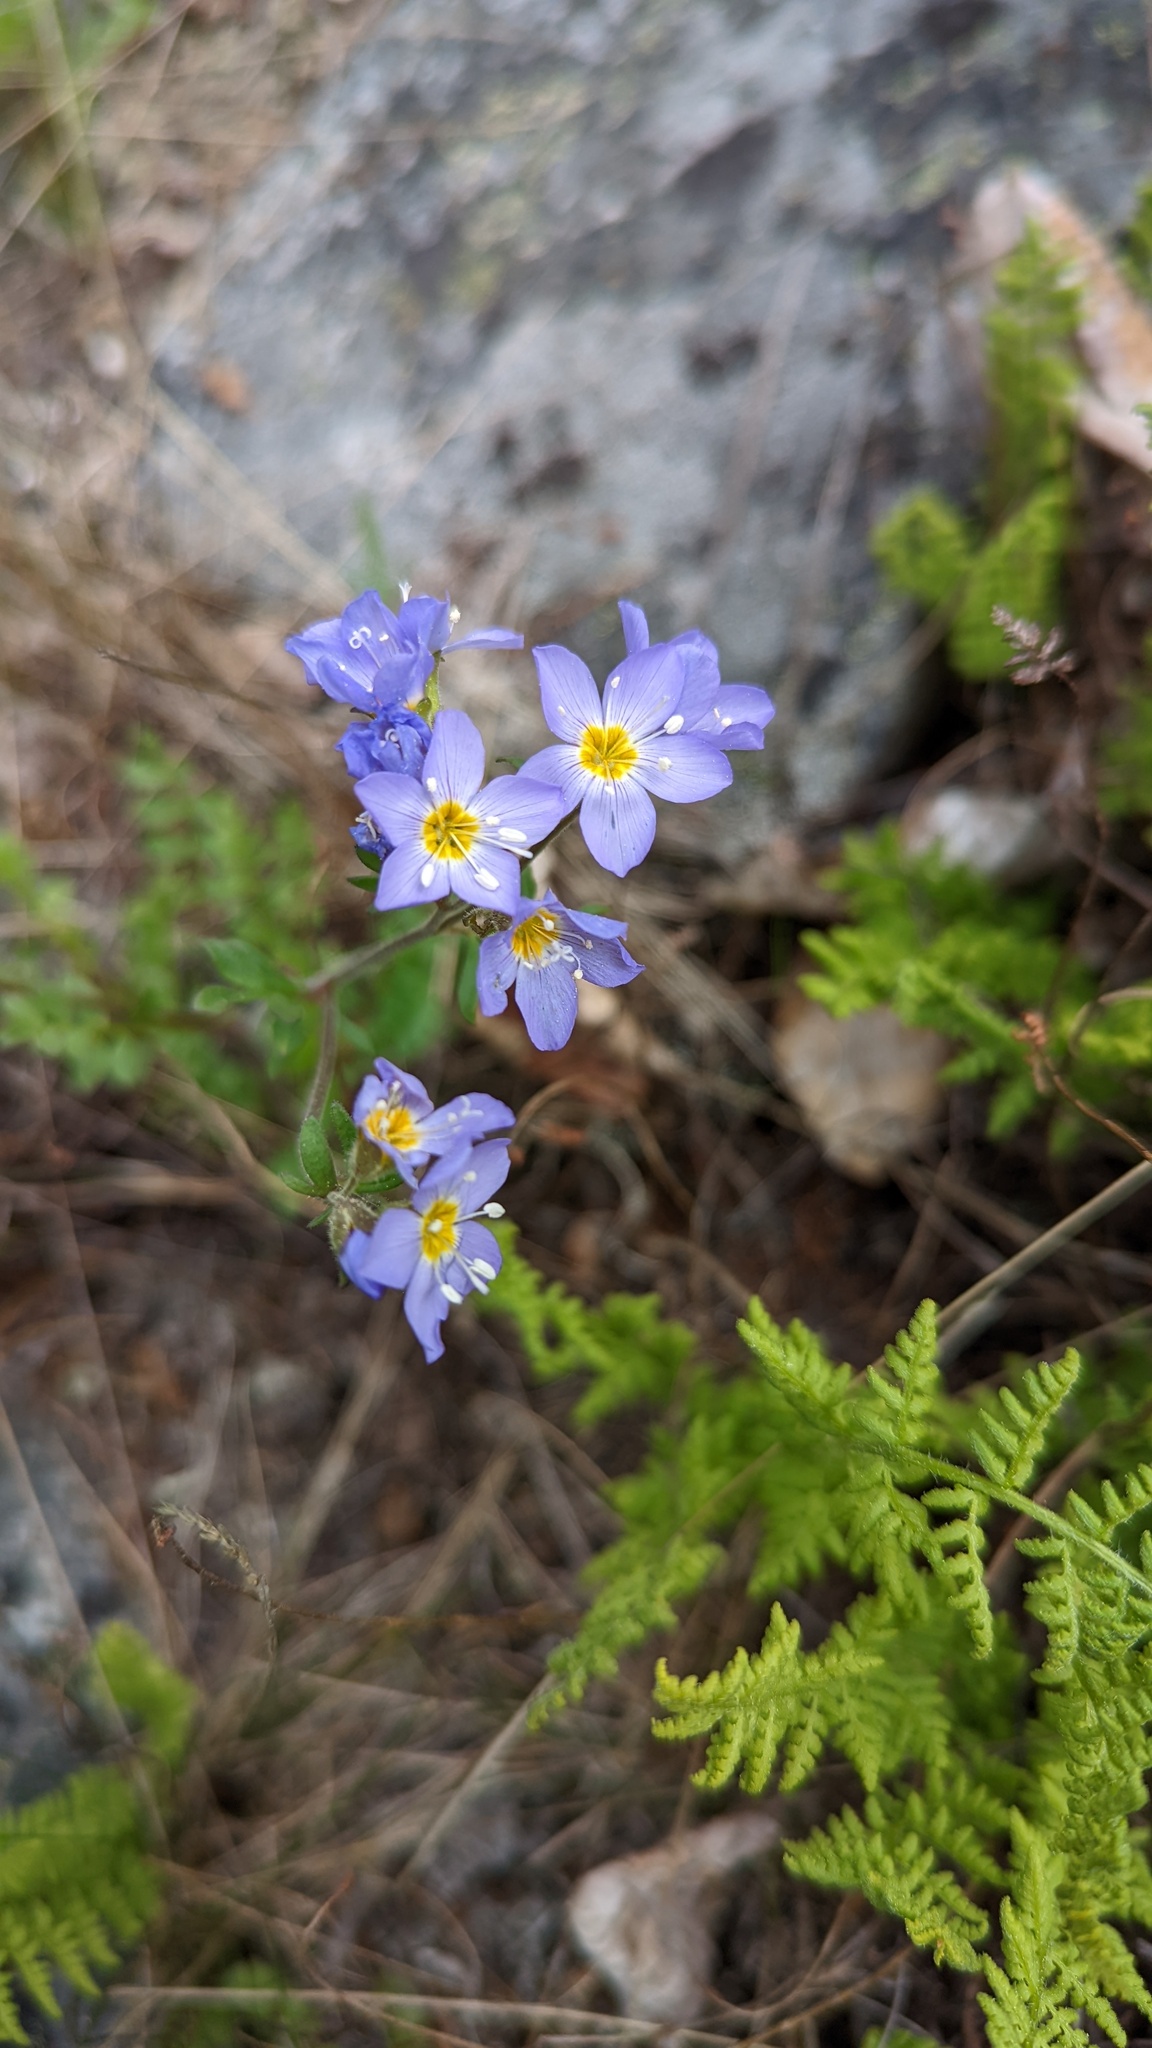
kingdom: Plantae
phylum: Tracheophyta
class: Magnoliopsida
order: Ericales
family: Polemoniaceae
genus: Polemonium
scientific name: Polemonium pulcherrimum
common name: Short jacob's-ladder
